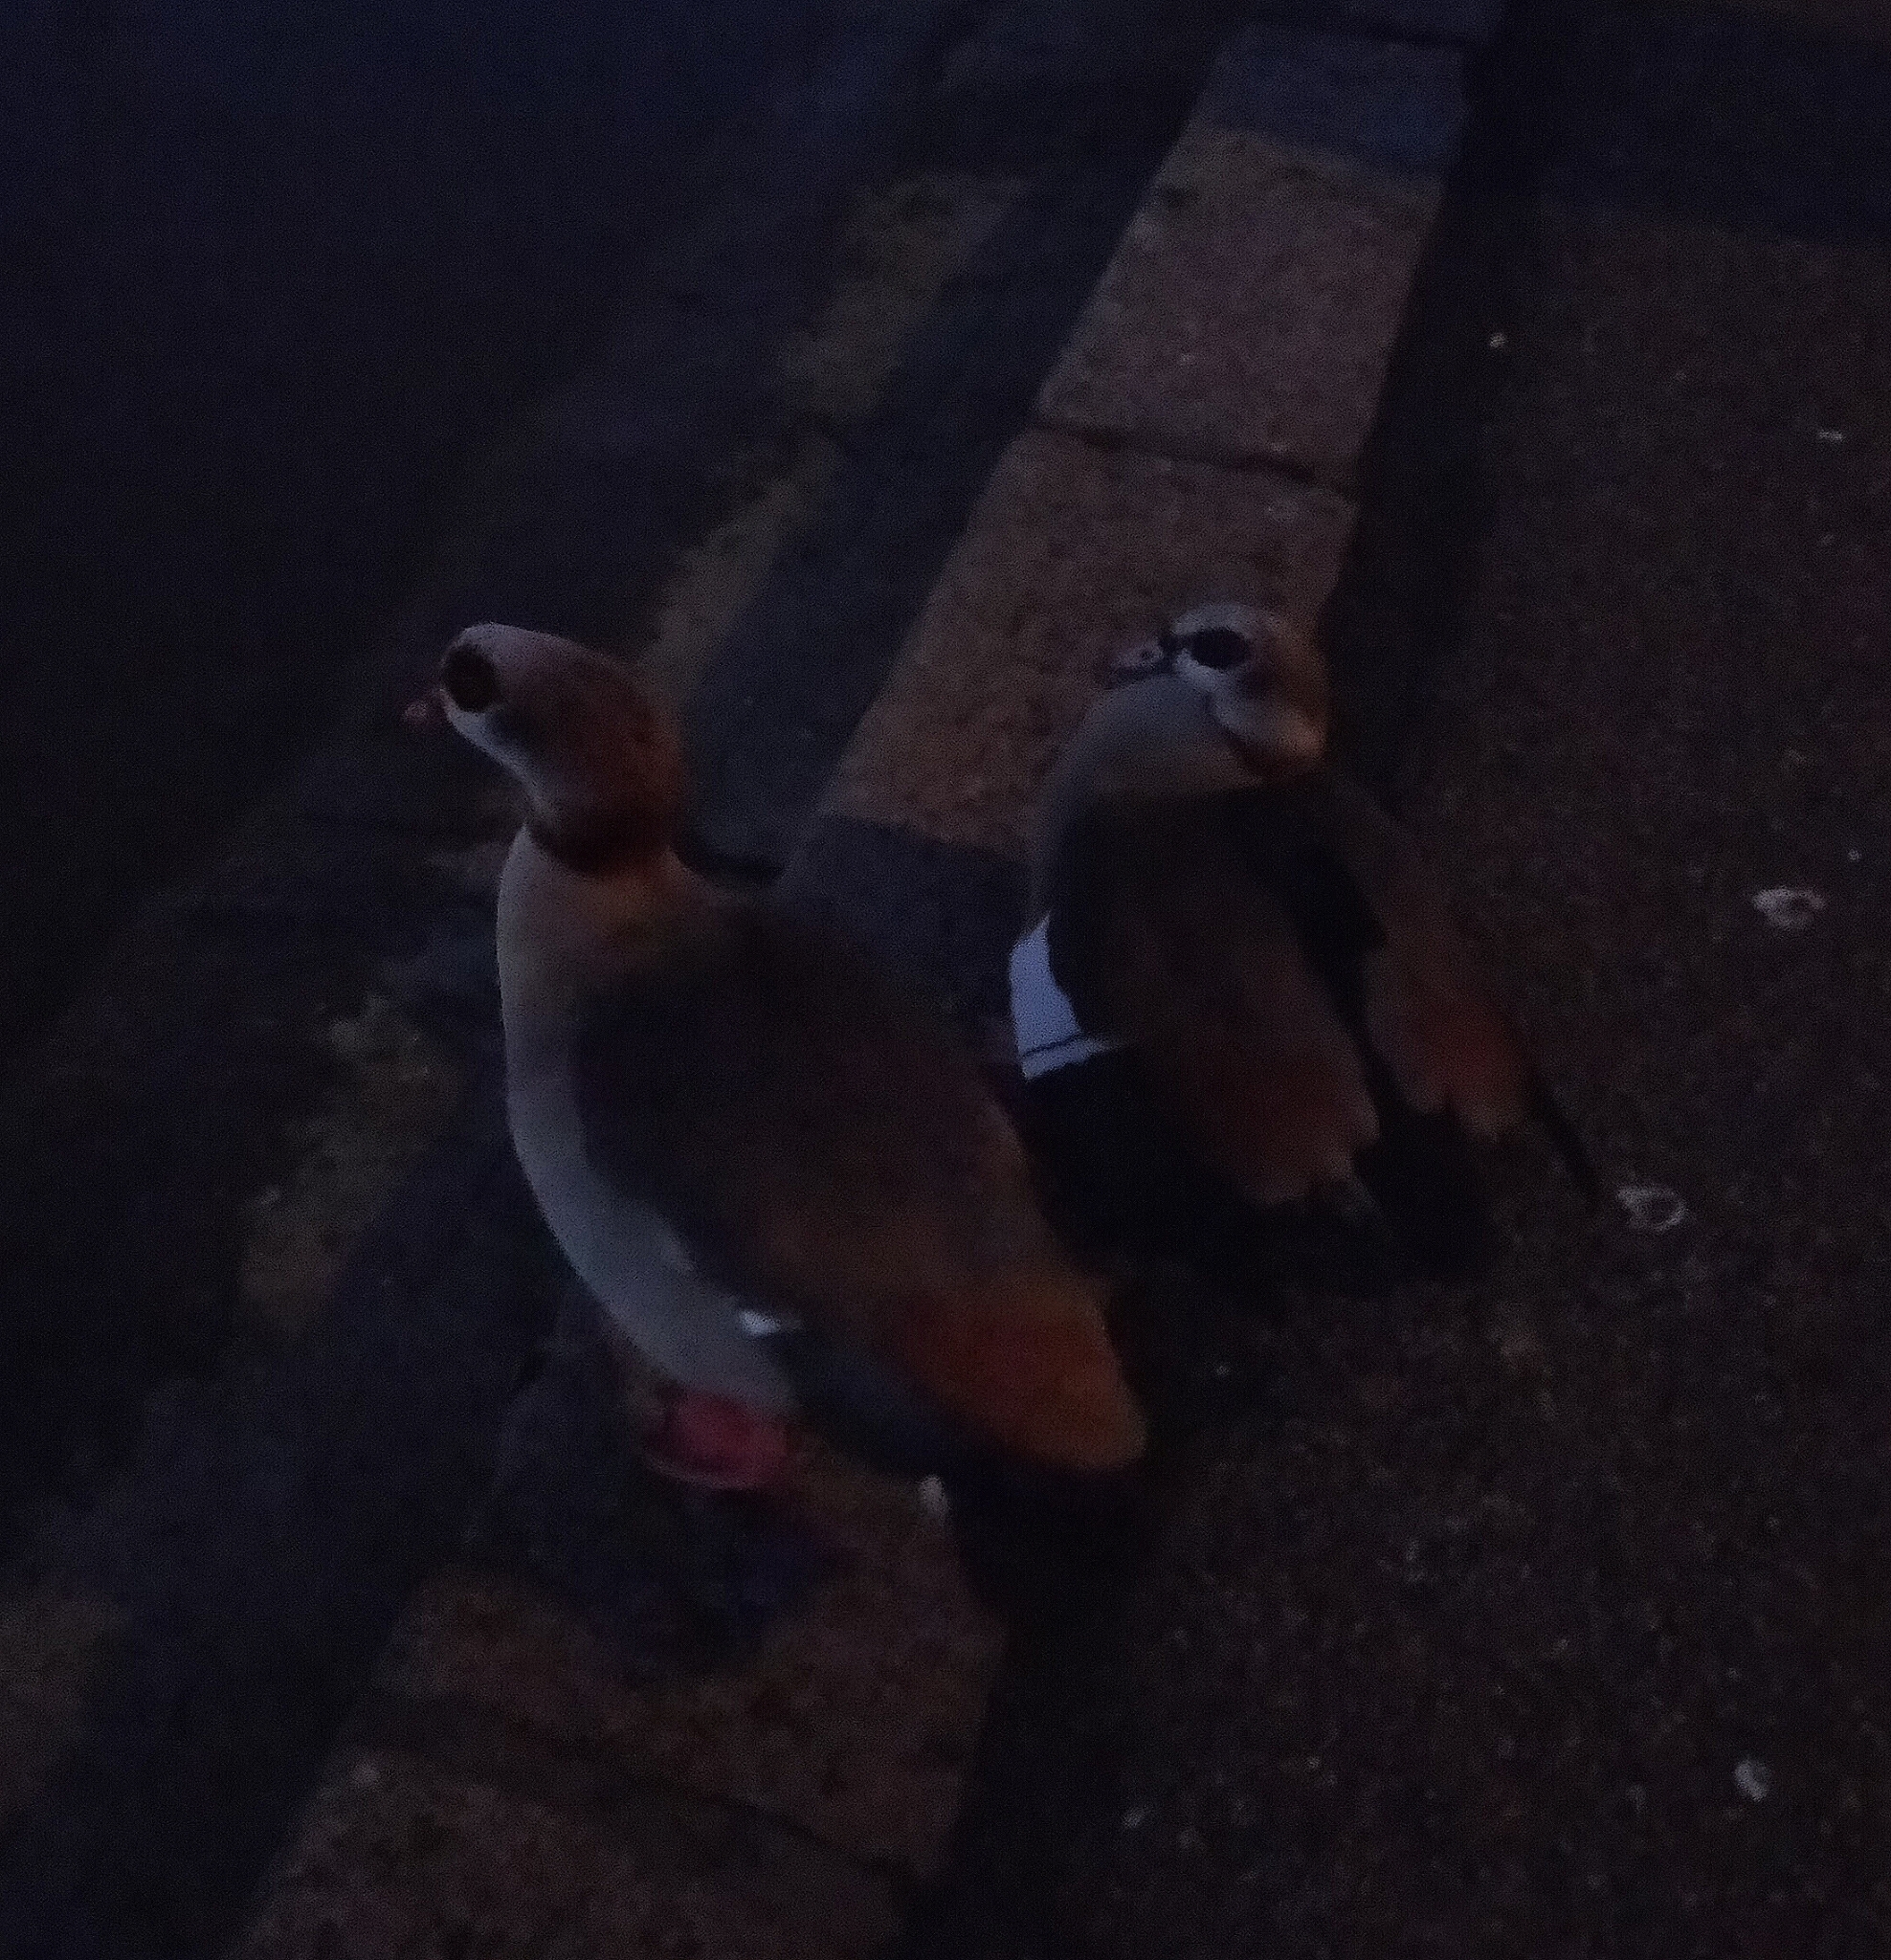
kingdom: Animalia
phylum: Chordata
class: Aves
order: Anseriformes
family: Anatidae
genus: Alopochen
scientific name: Alopochen aegyptiaca
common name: Egyptian goose
